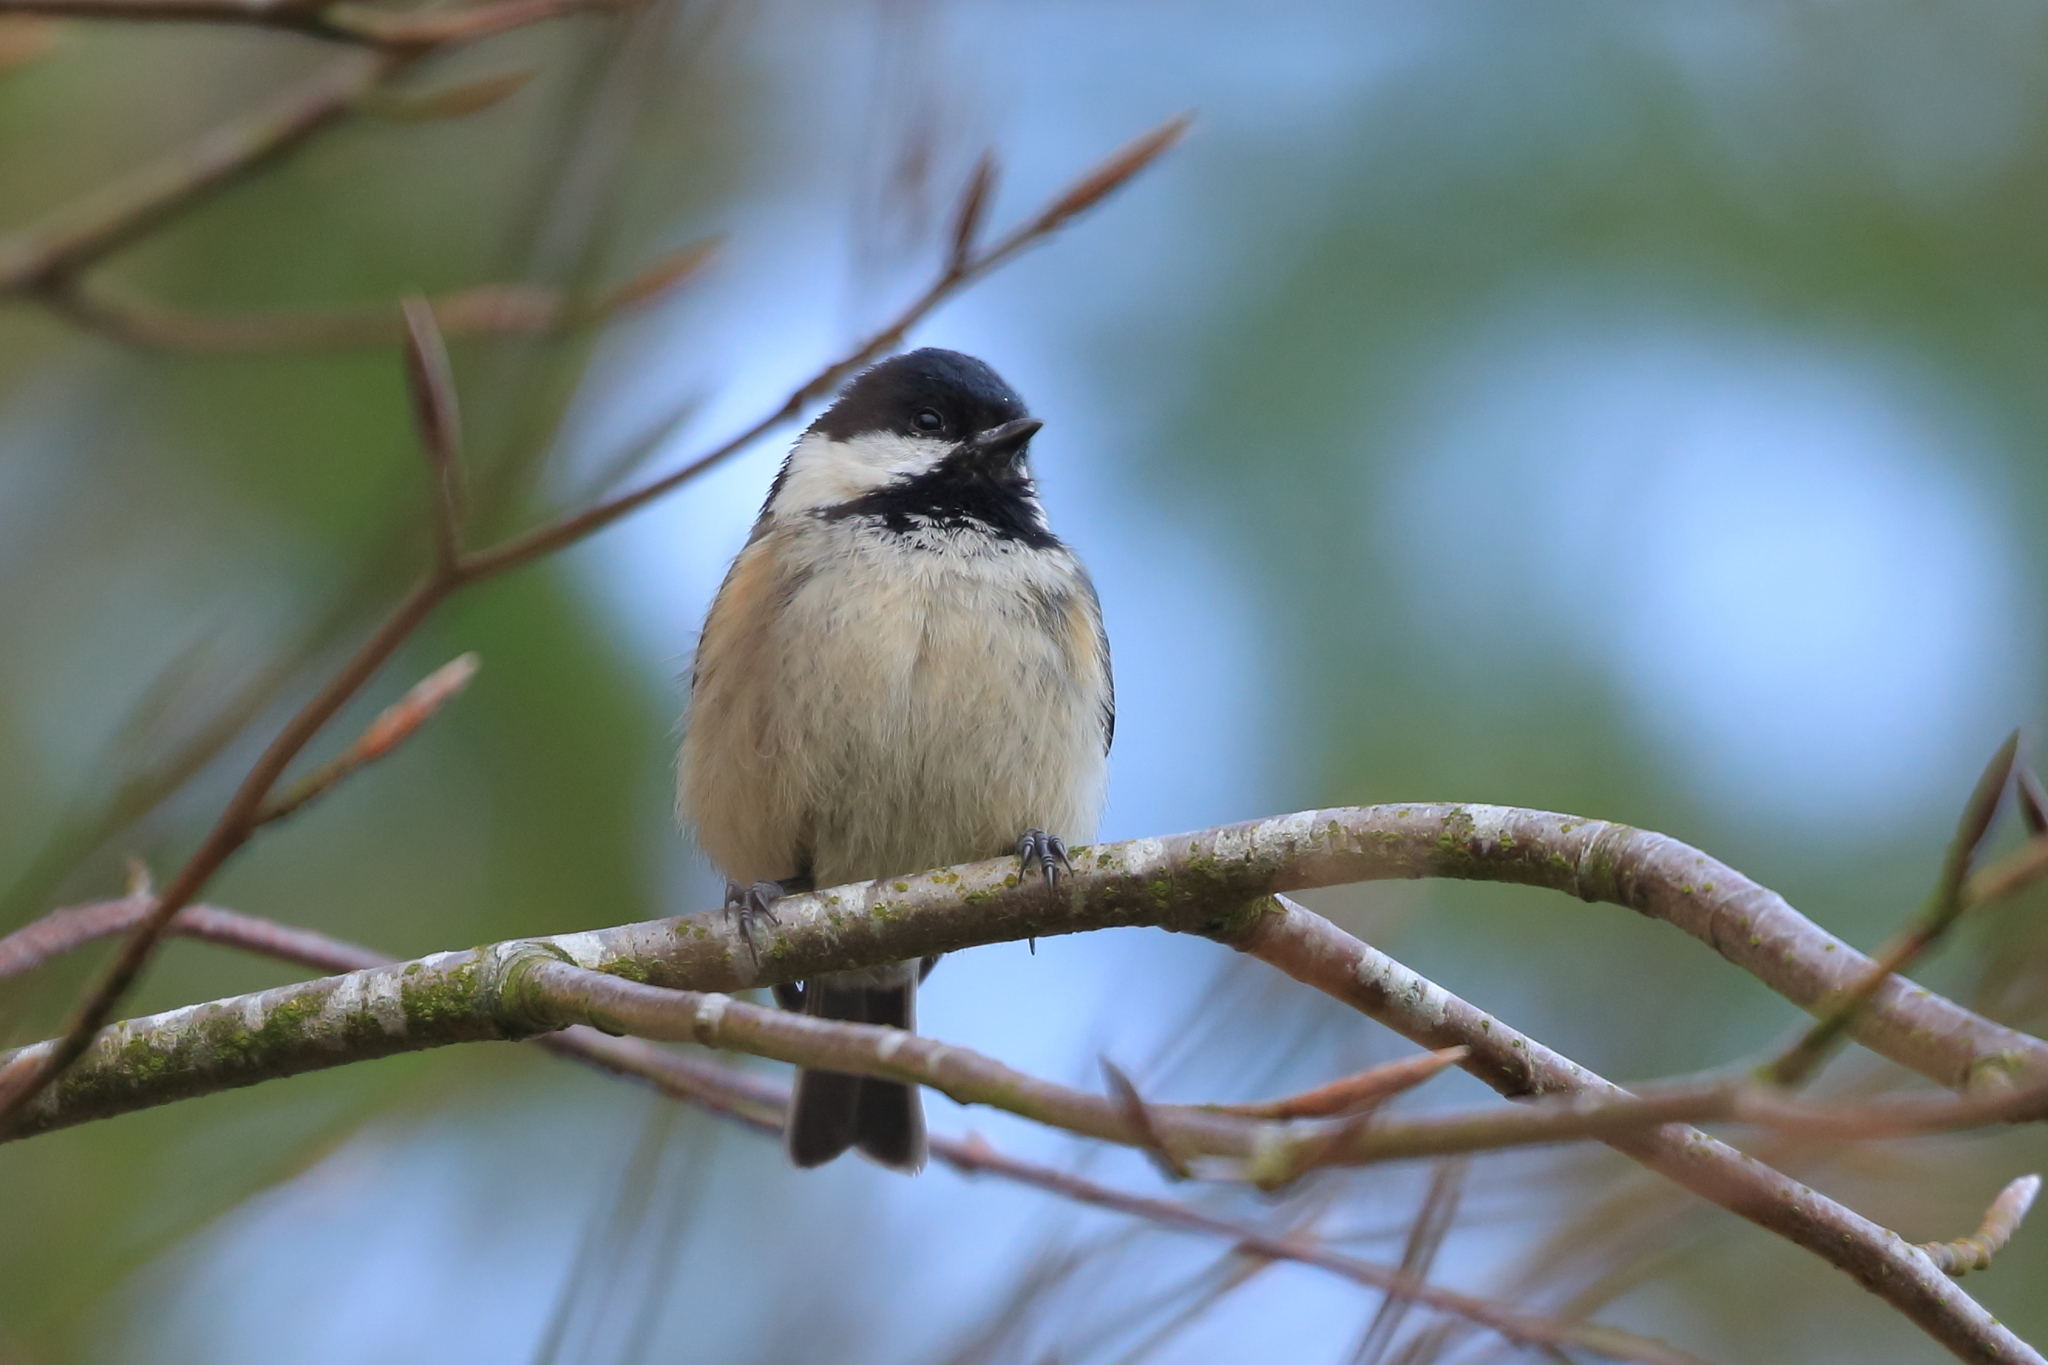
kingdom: Animalia
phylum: Chordata
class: Aves
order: Passeriformes
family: Paridae
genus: Periparus
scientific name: Periparus ater
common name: Coal tit
